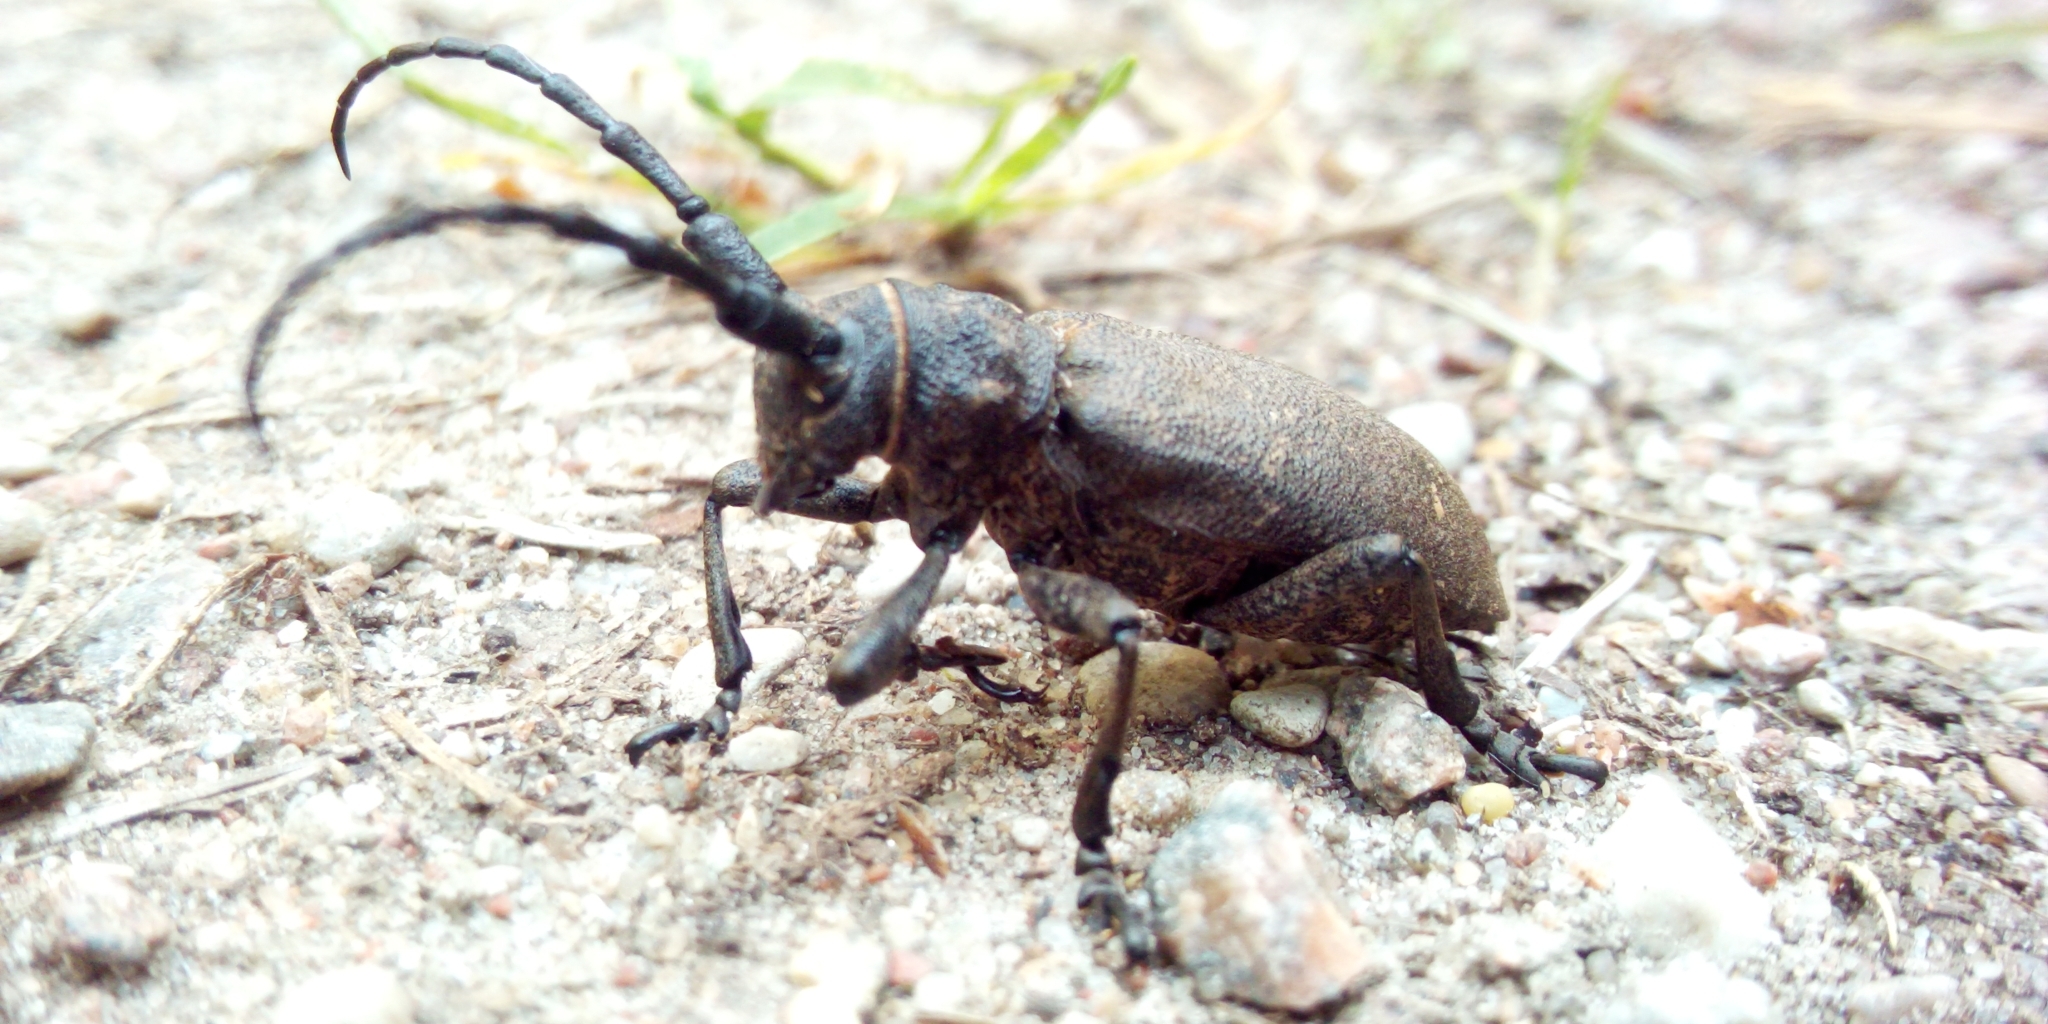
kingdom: Animalia
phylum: Arthropoda
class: Insecta
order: Coleoptera
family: Cerambycidae
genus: Lamia
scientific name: Lamia textor
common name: Weaver beetle
